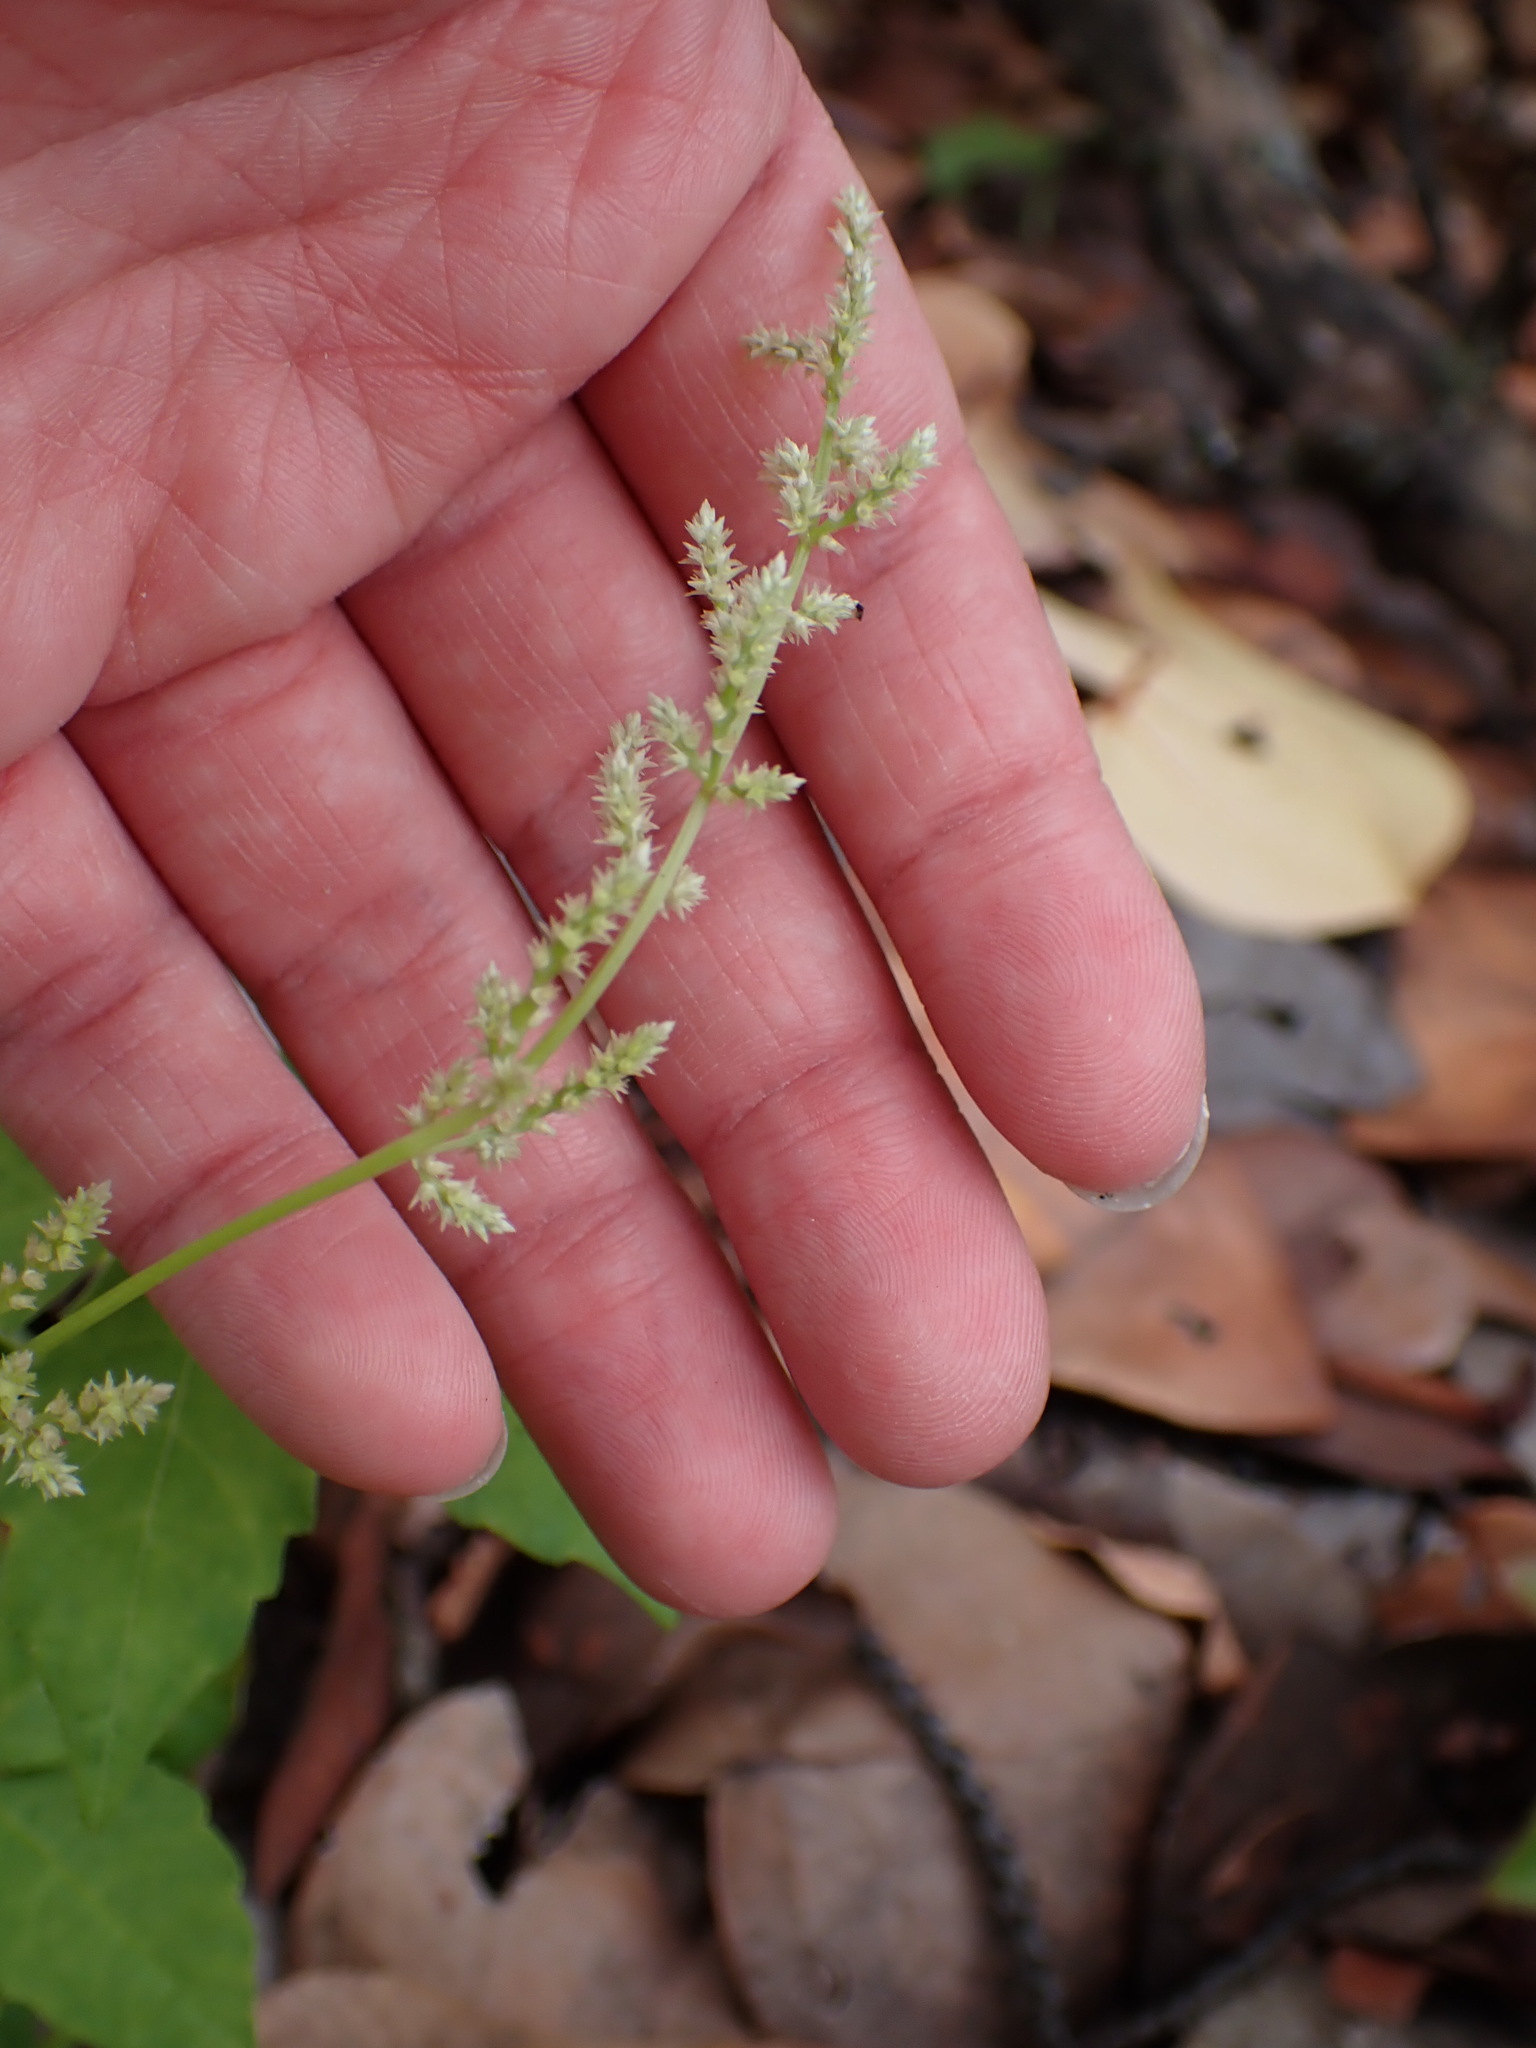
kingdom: Plantae
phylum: Tracheophyta
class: Magnoliopsida
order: Caryophyllales
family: Amaranthaceae
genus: Iresine
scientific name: Iresine diffusa
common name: Juba's-bush
